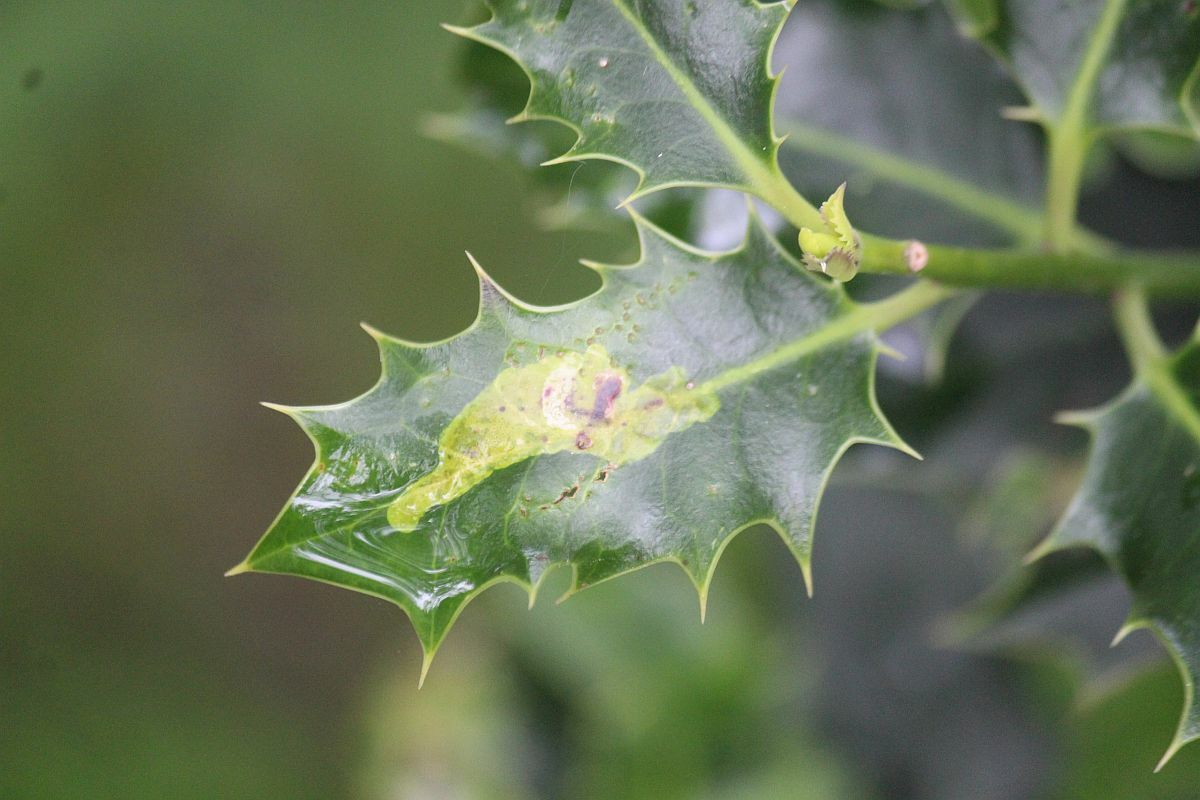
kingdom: Animalia
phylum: Arthropoda
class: Insecta
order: Diptera
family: Agromyzidae
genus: Phytomyza
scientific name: Phytomyza ilicis
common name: Holly leafminer
